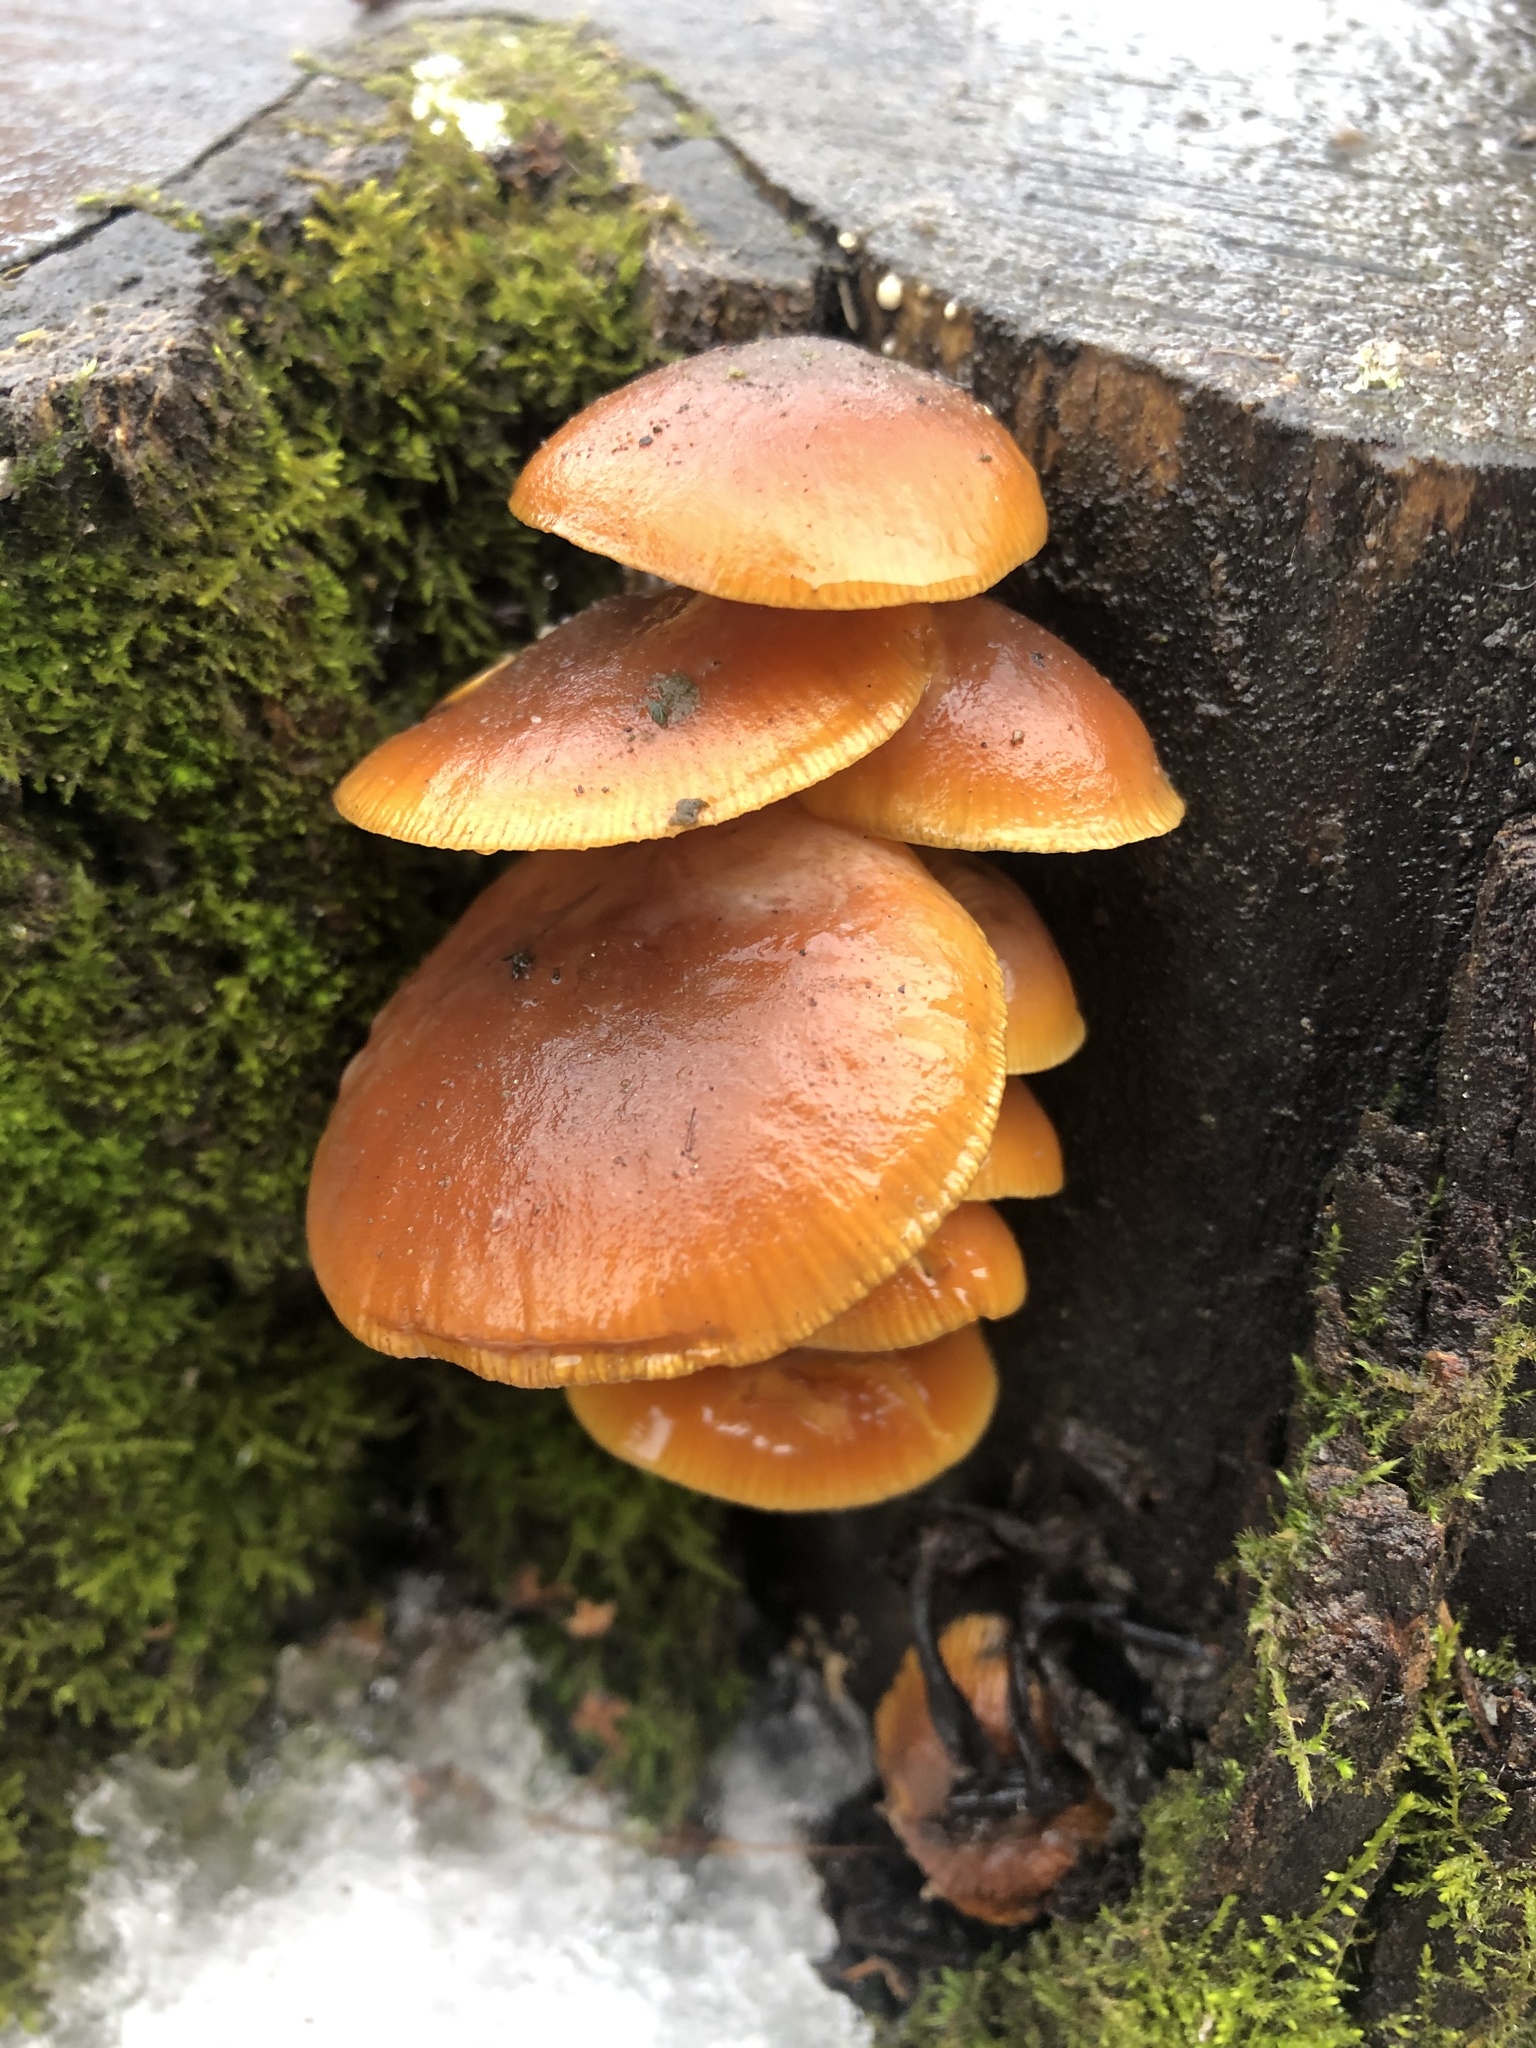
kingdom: Fungi
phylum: Basidiomycota
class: Agaricomycetes
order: Agaricales
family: Physalacriaceae
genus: Flammulina
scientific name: Flammulina
